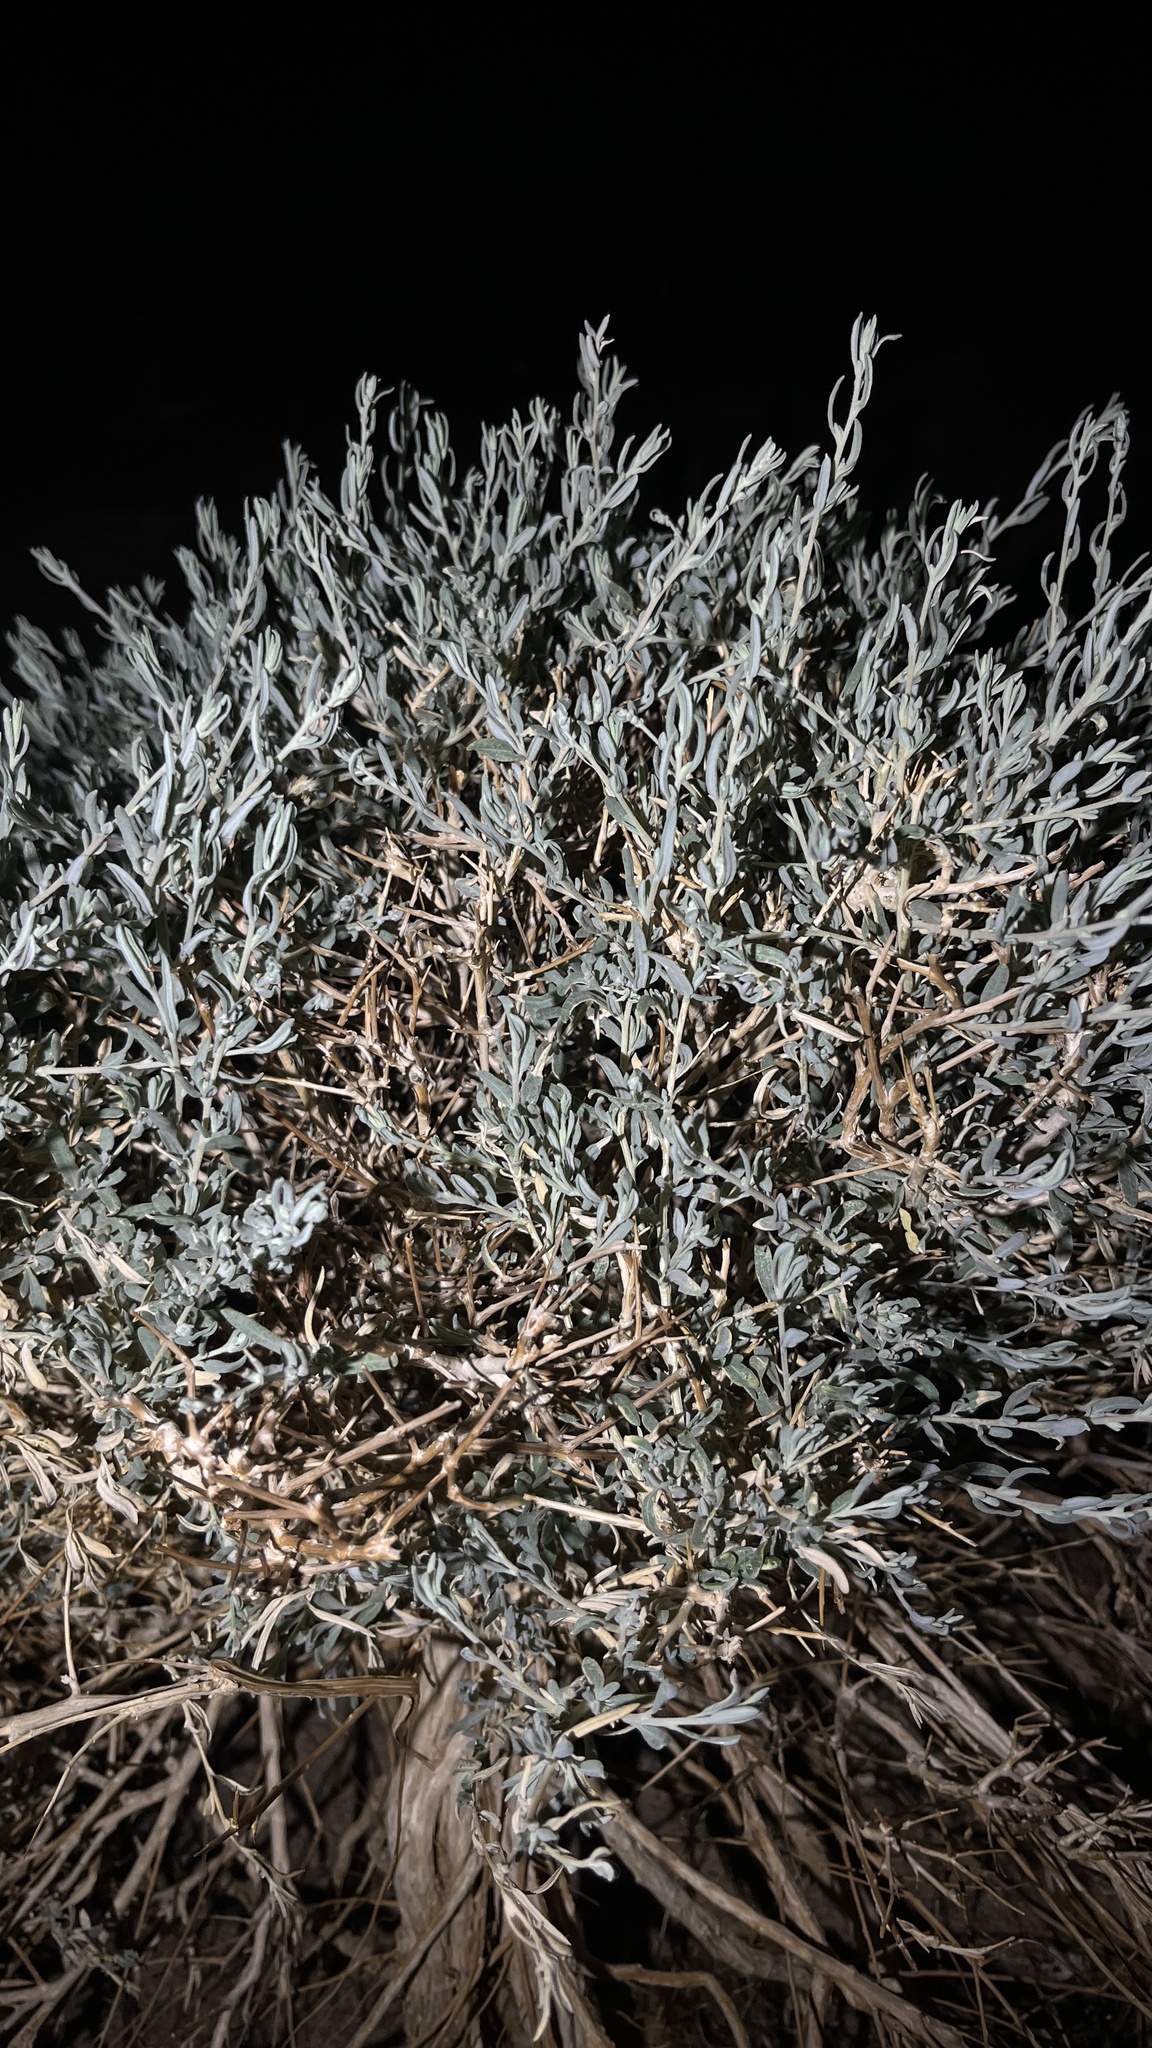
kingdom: Plantae
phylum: Tracheophyta
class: Magnoliopsida
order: Caryophyllales
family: Amaranthaceae
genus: Krascheninnikovia
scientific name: Krascheninnikovia ceratoides
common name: Pamirian winterfat
